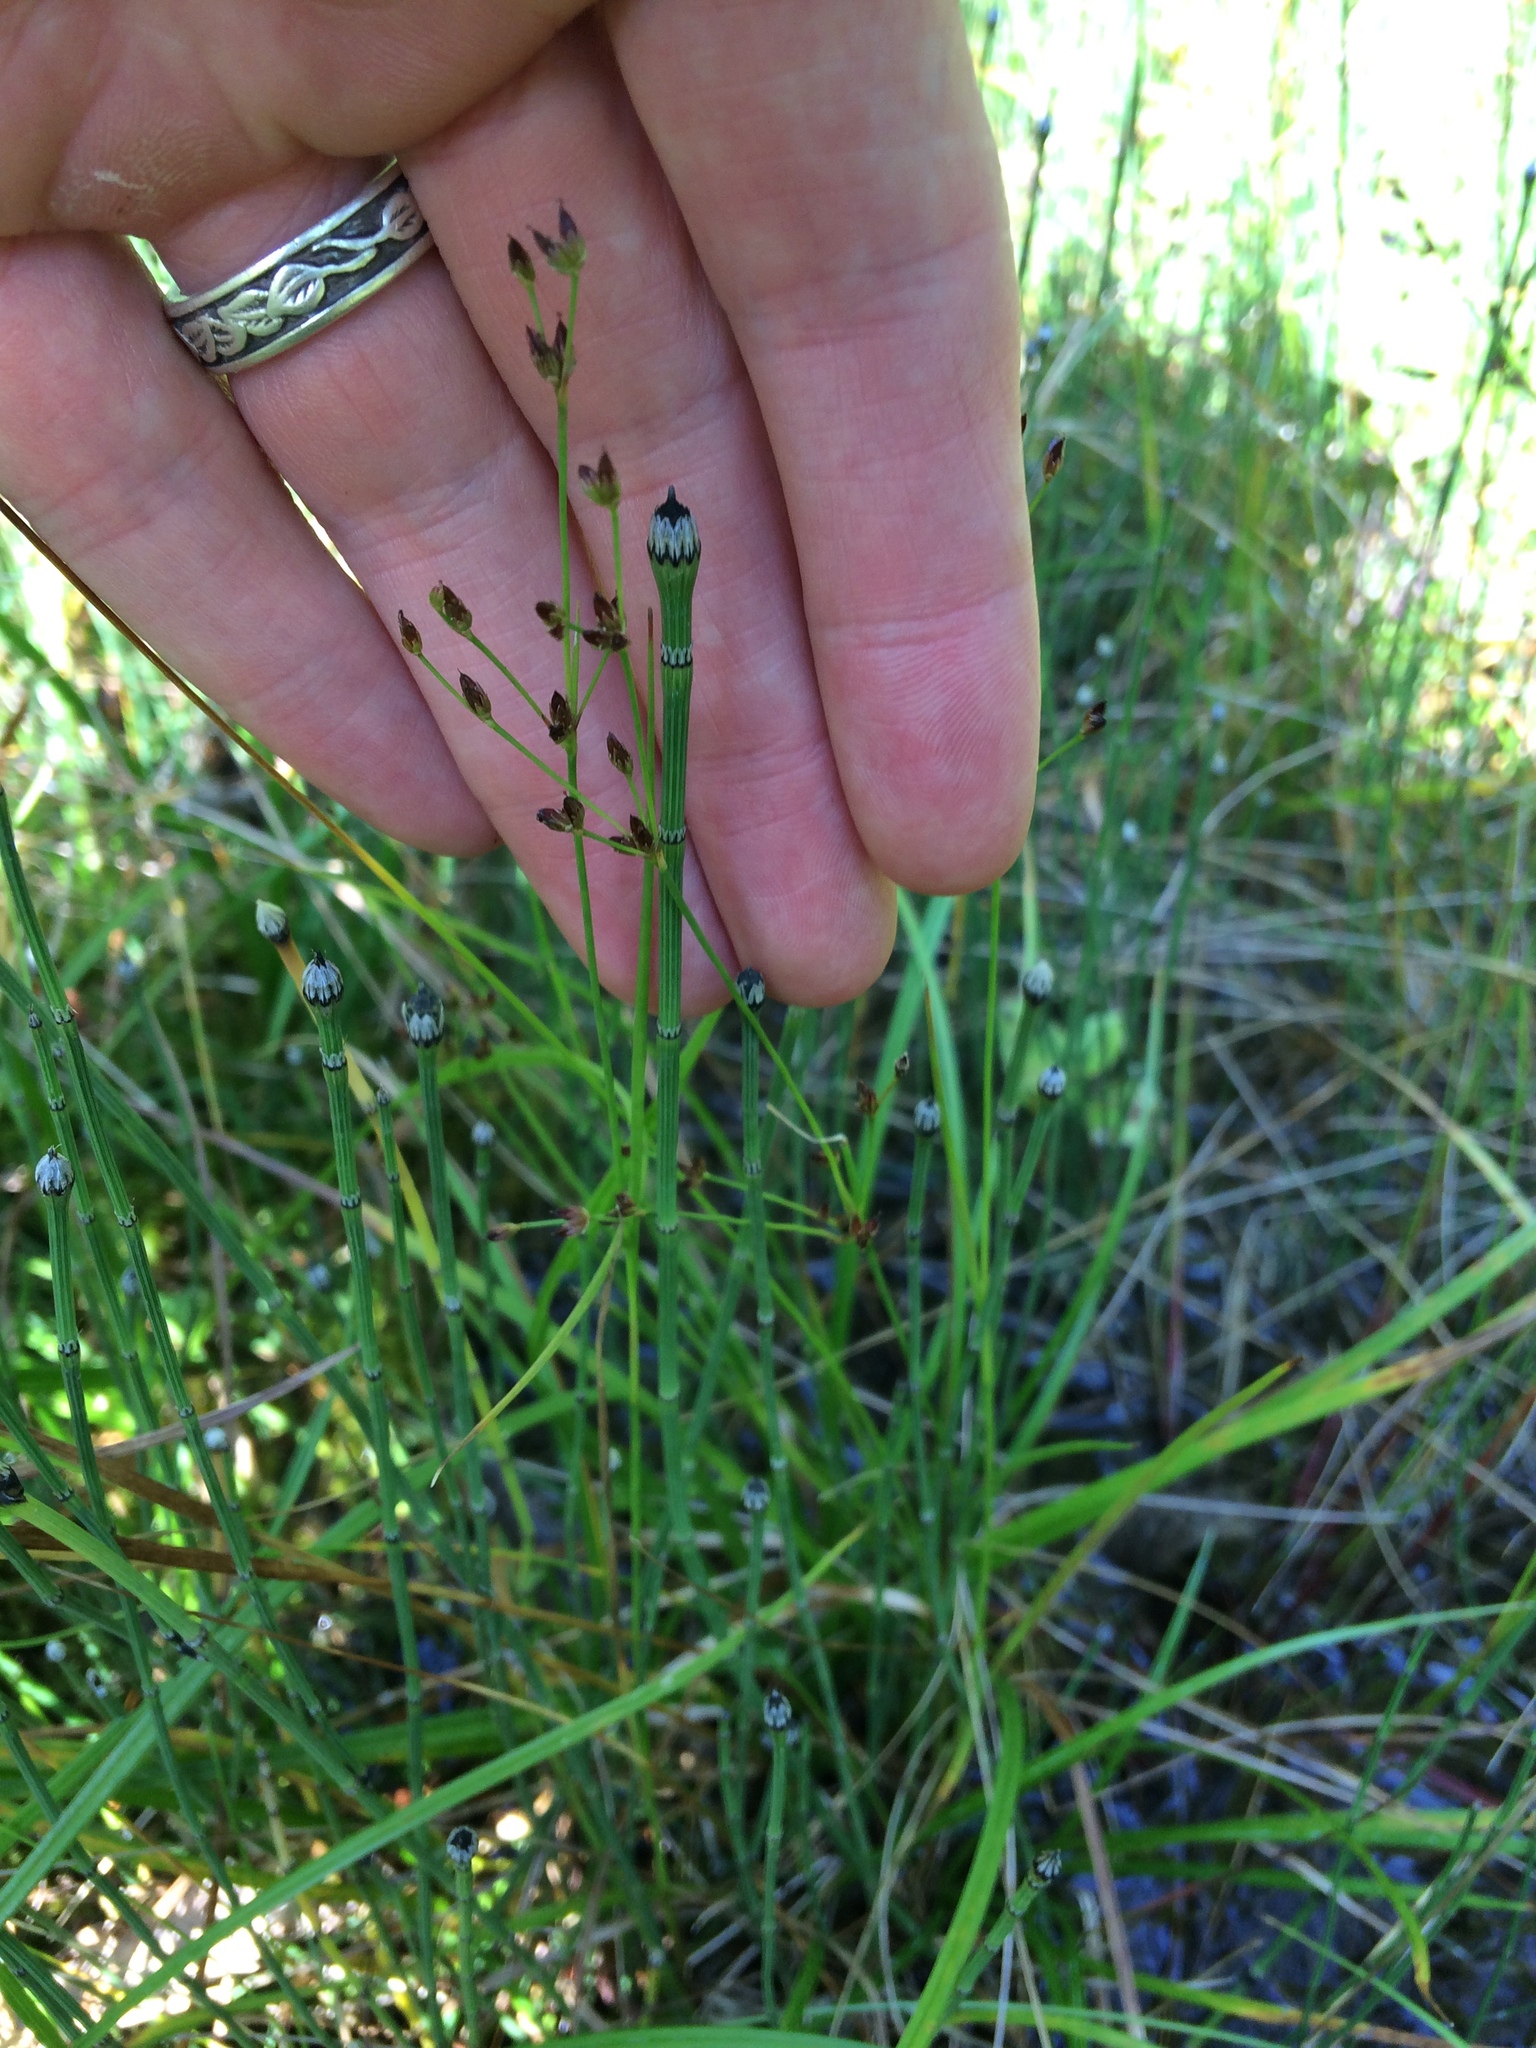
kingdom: Plantae
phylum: Tracheophyta
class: Polypodiopsida
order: Equisetales
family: Equisetaceae
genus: Equisetum
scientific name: Equisetum variegatum
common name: Variegated horsetail
